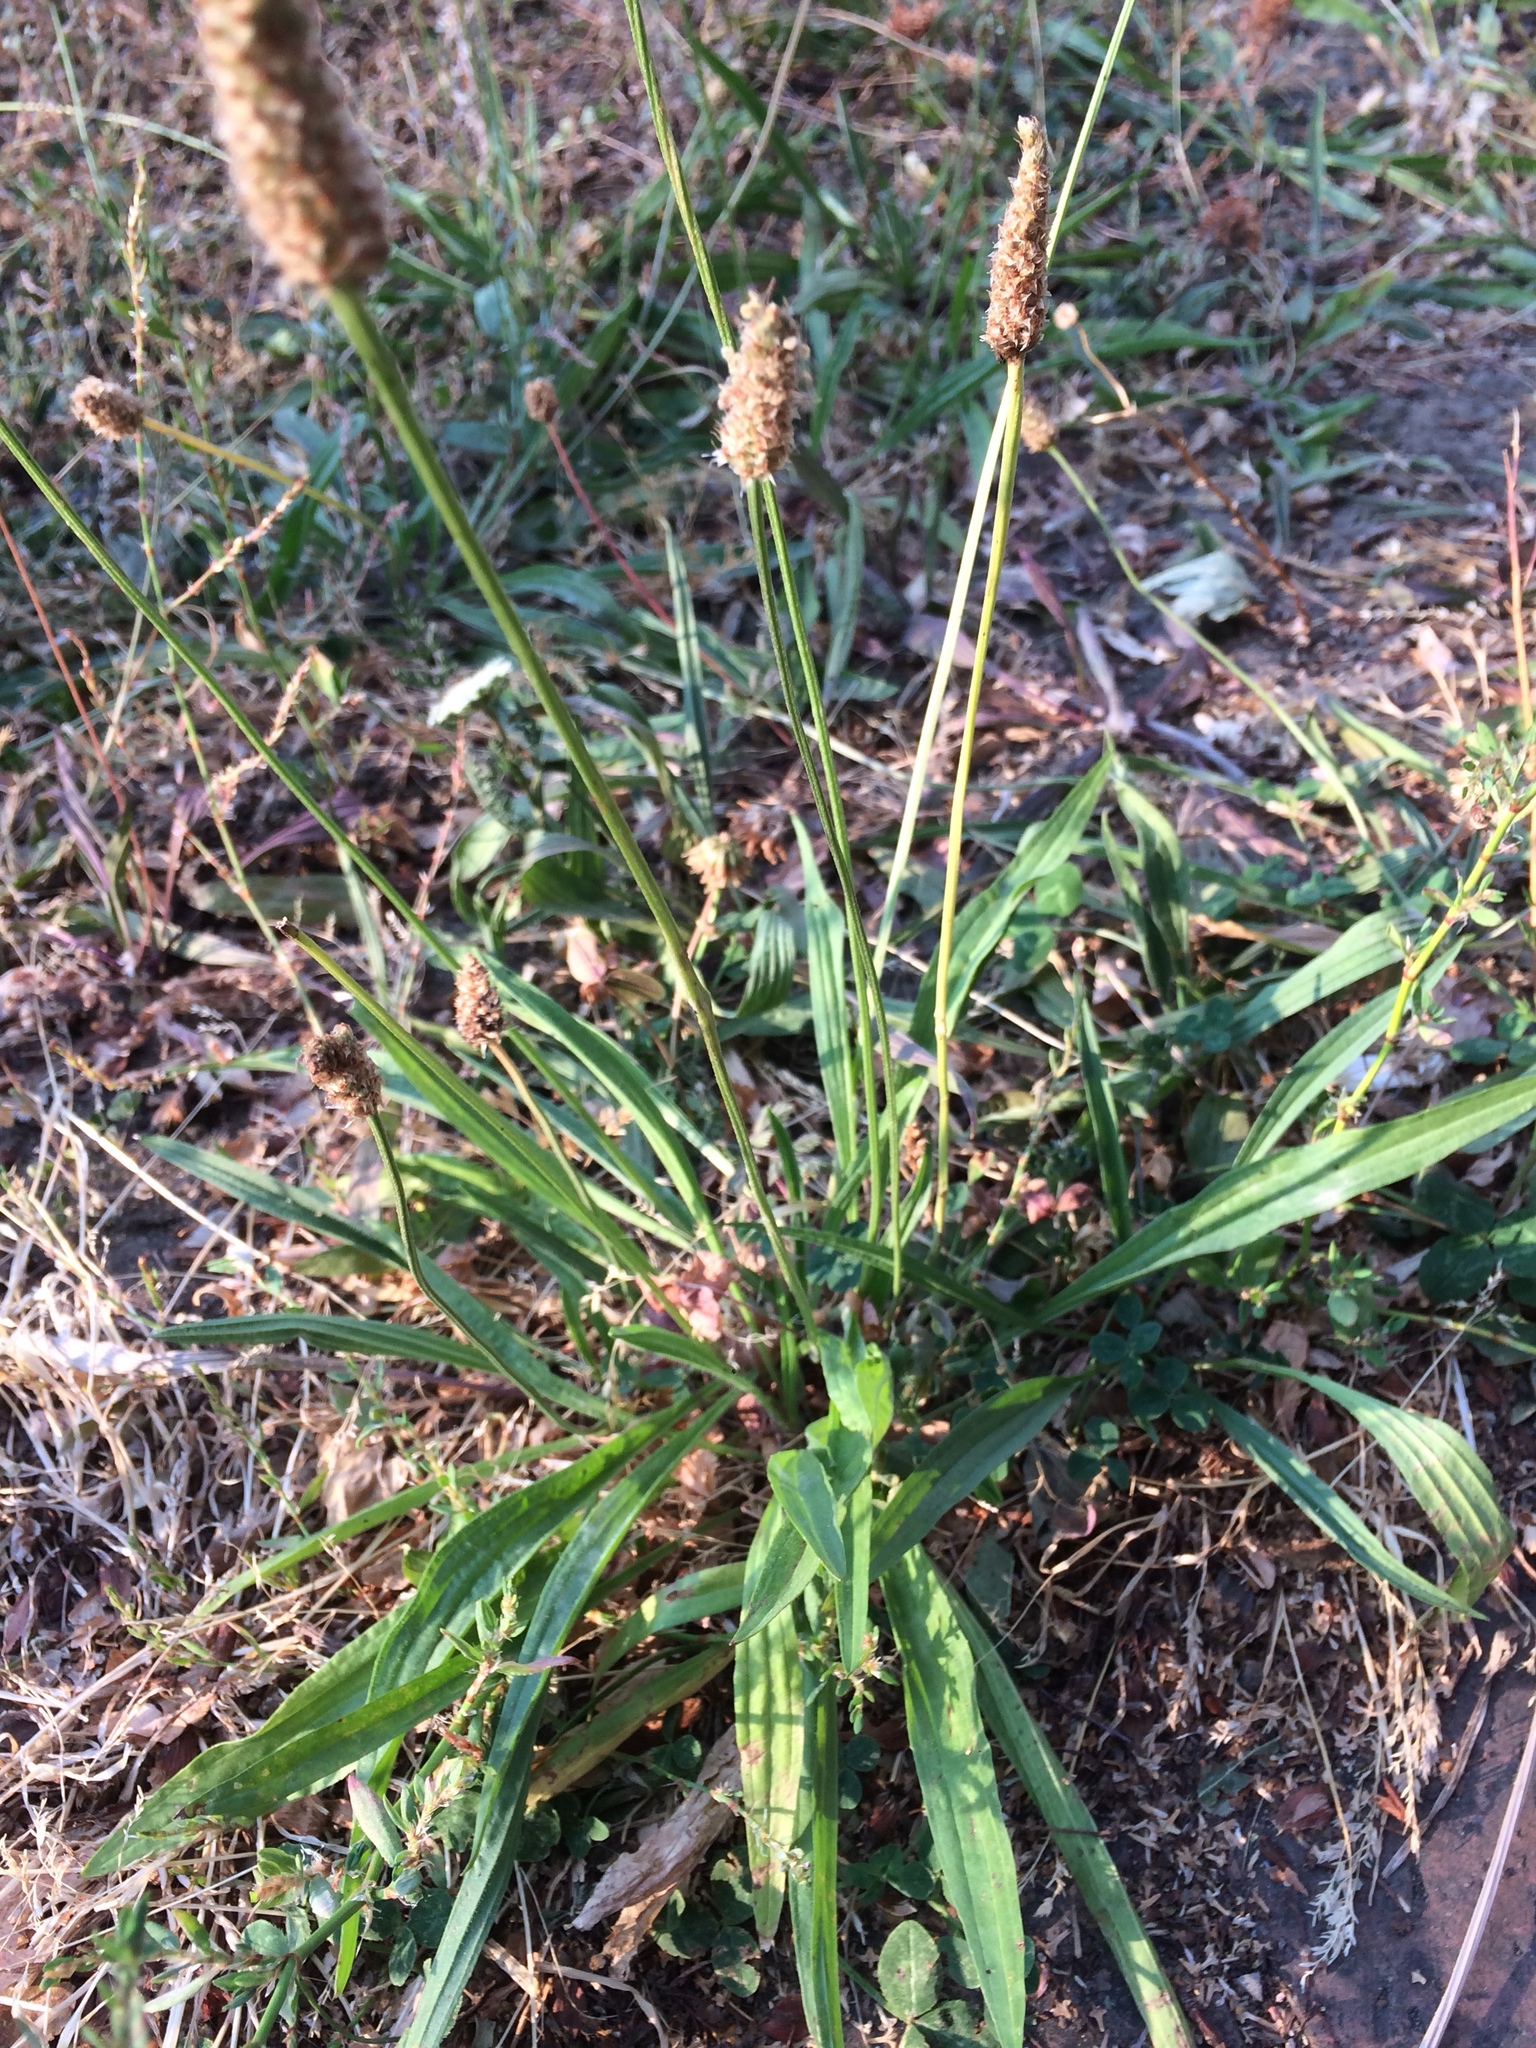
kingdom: Plantae
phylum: Tracheophyta
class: Magnoliopsida
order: Lamiales
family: Plantaginaceae
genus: Plantago
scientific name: Plantago lanceolata
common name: Ribwort plantain
